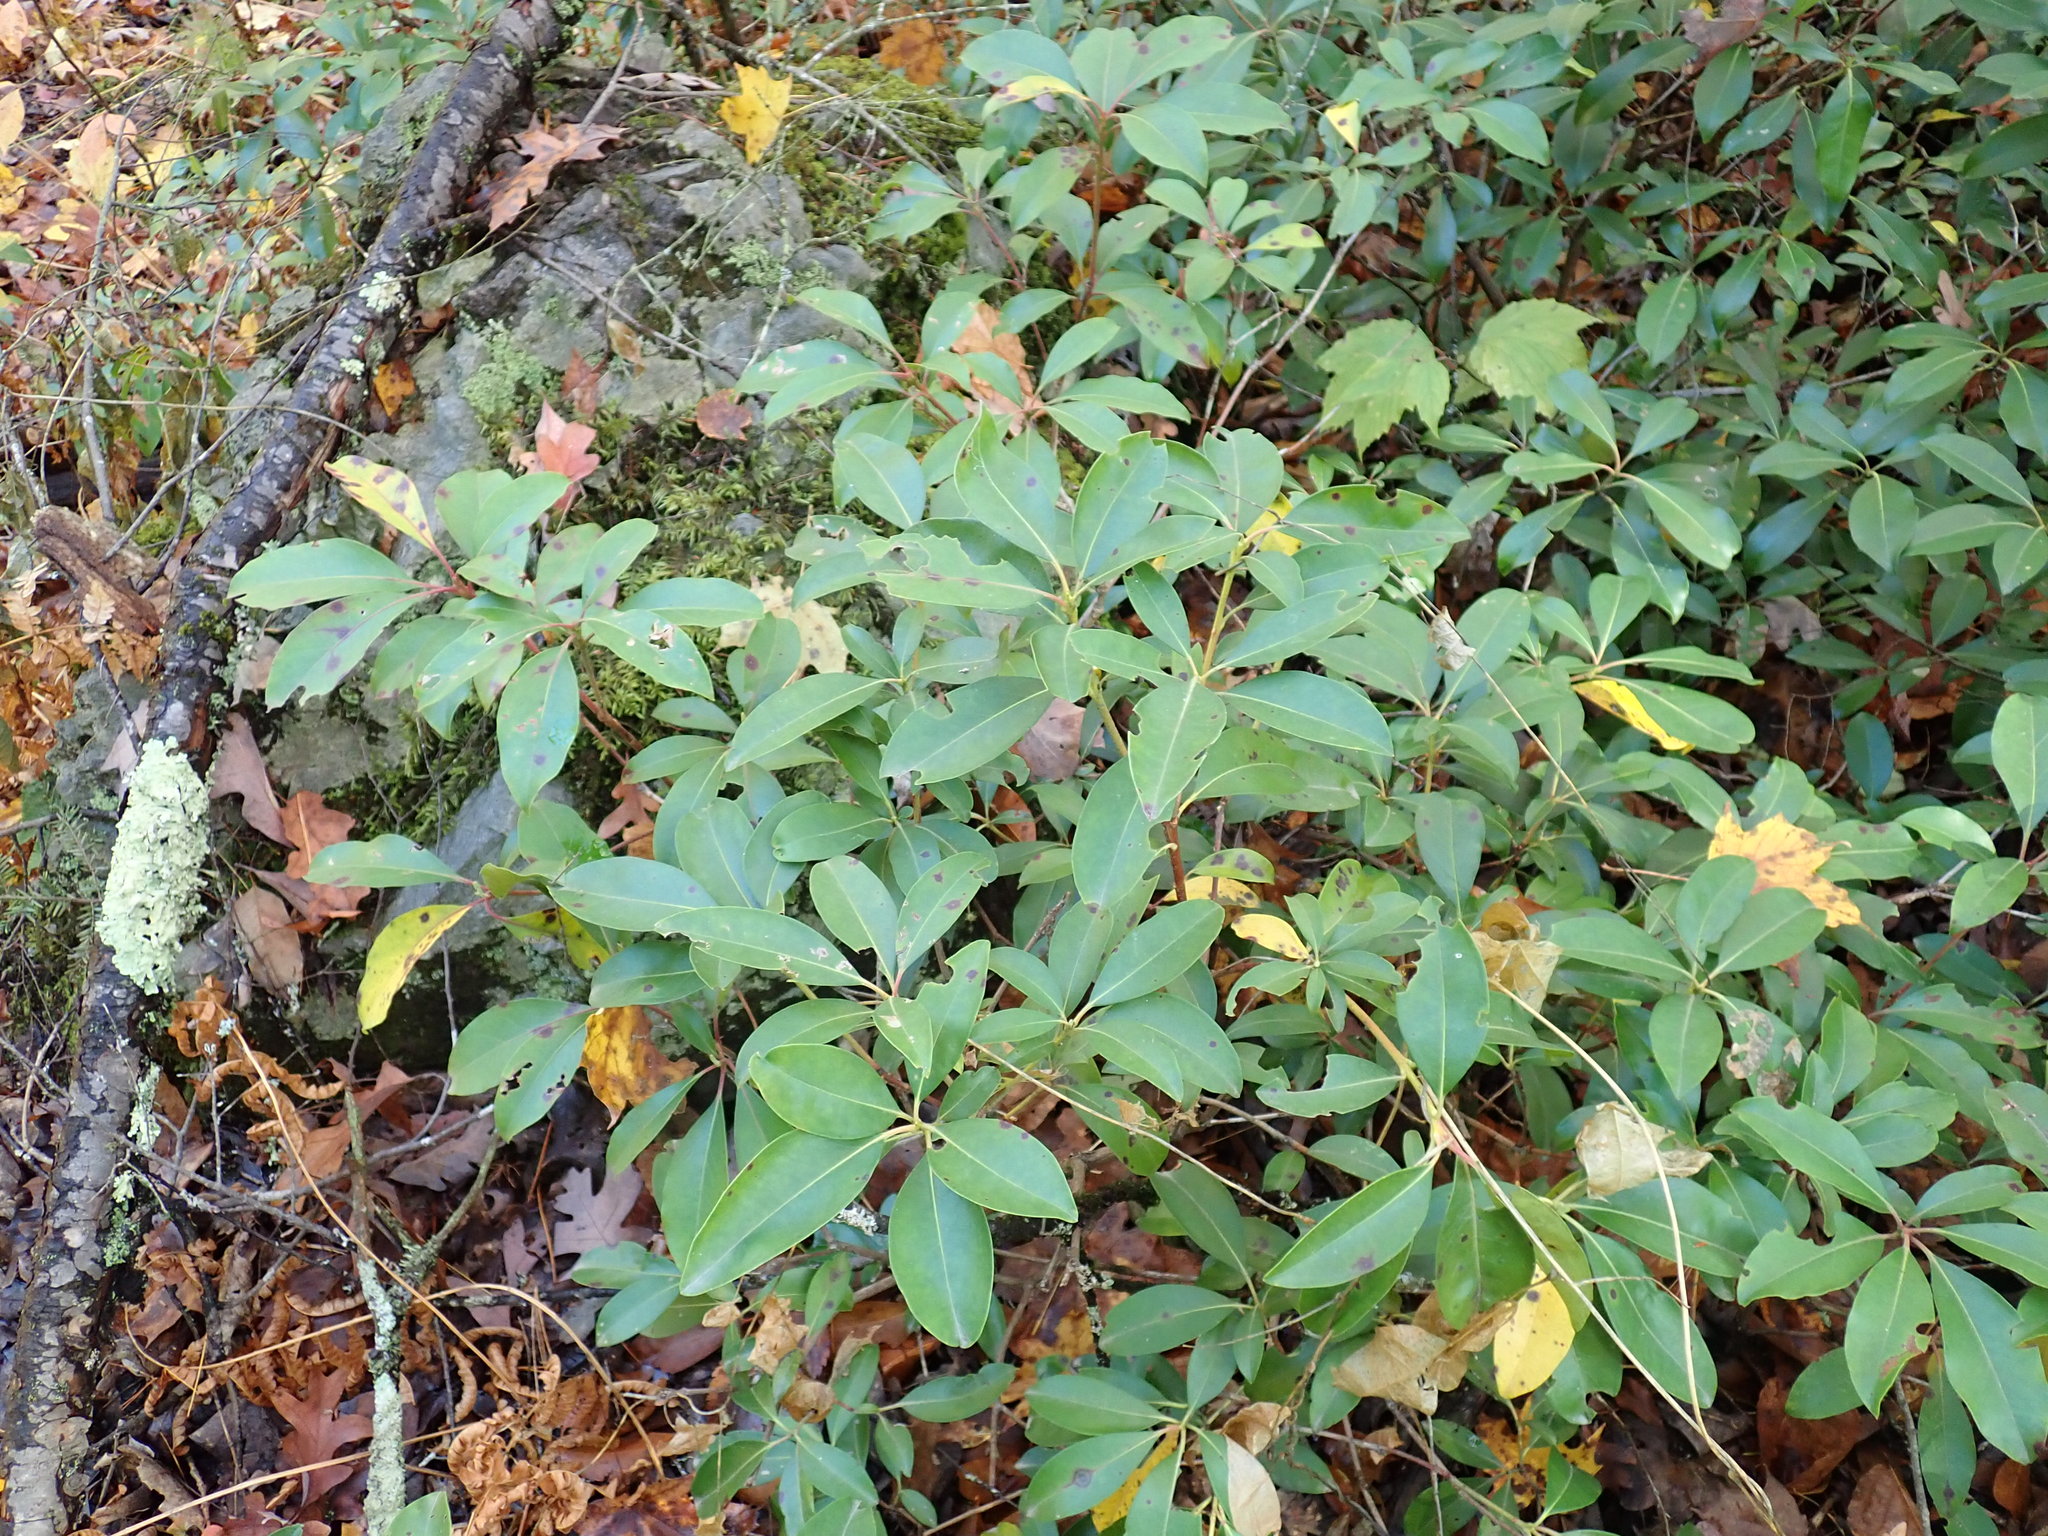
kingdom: Plantae
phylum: Tracheophyta
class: Magnoliopsida
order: Ericales
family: Ericaceae
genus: Kalmia
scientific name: Kalmia latifolia
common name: Mountain-laurel
